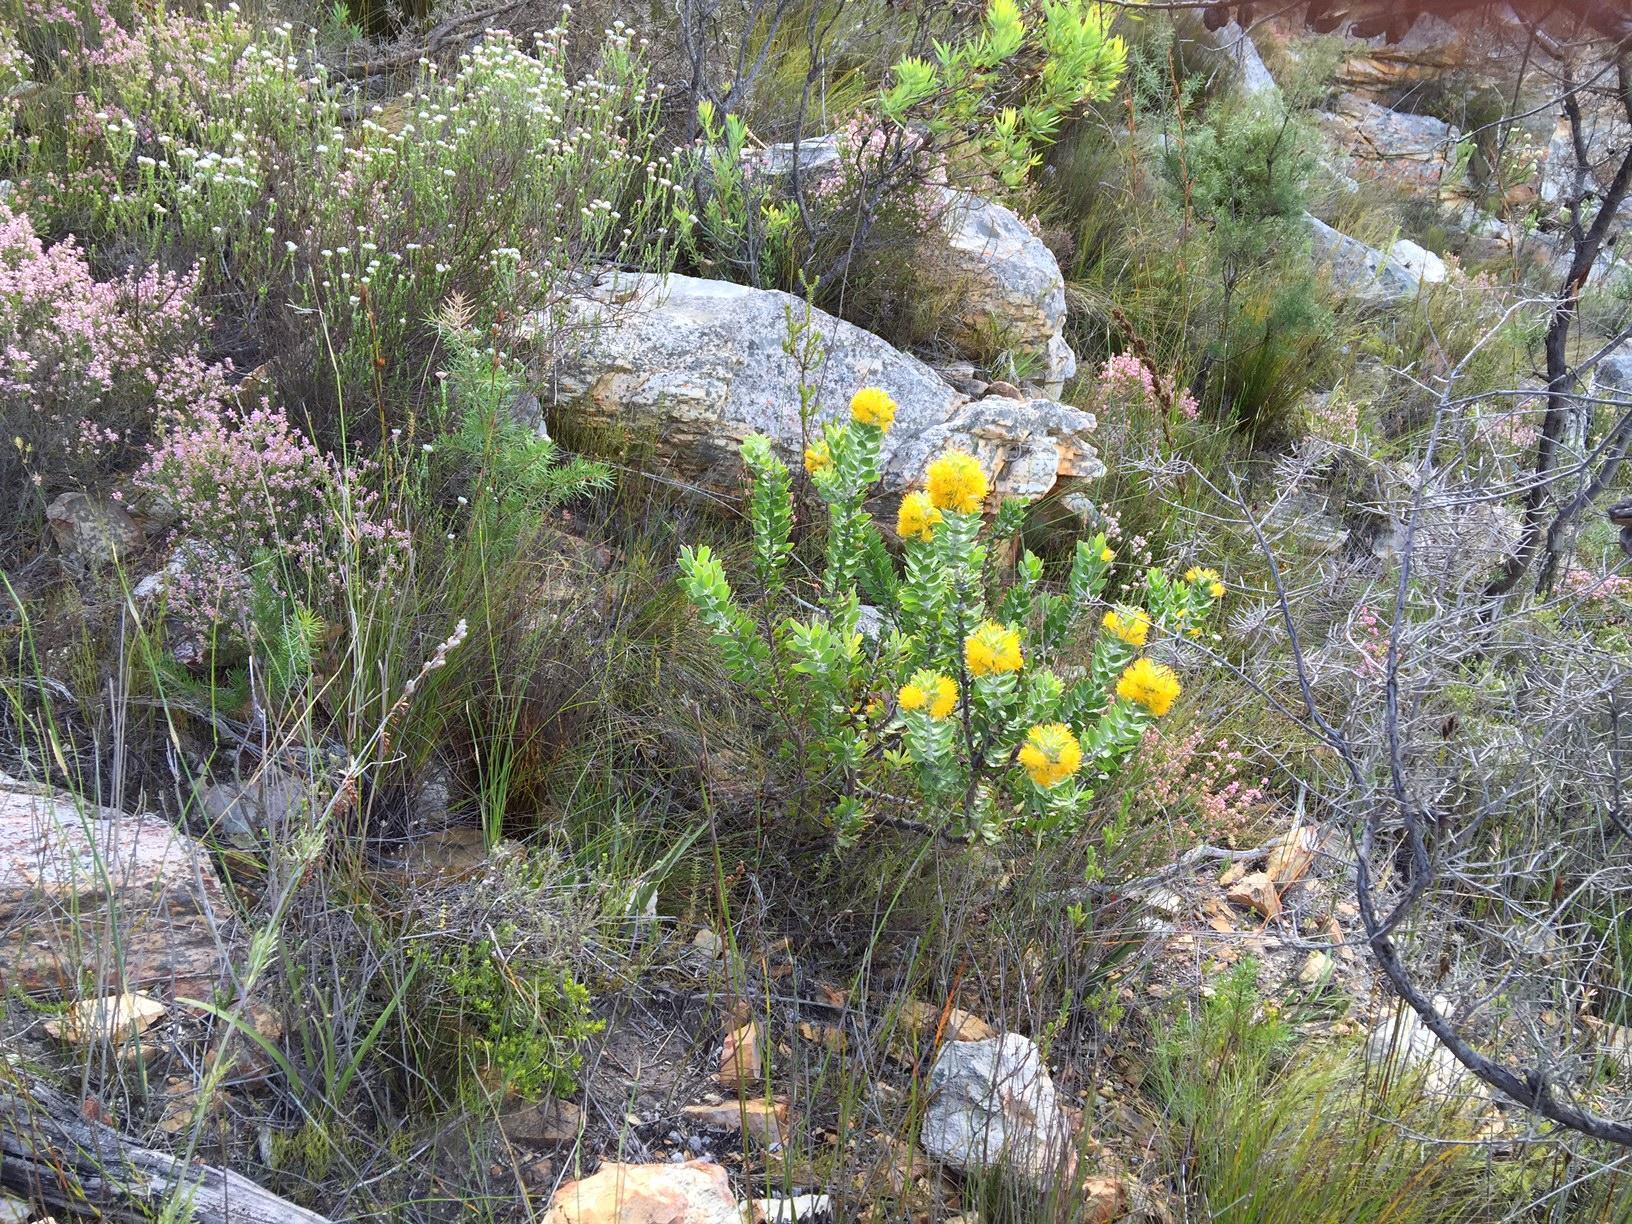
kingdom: Plantae
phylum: Tracheophyta
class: Magnoliopsida
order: Proteales
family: Proteaceae
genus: Mimetes
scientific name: Mimetes chrysanthus
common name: Golden pagoda
